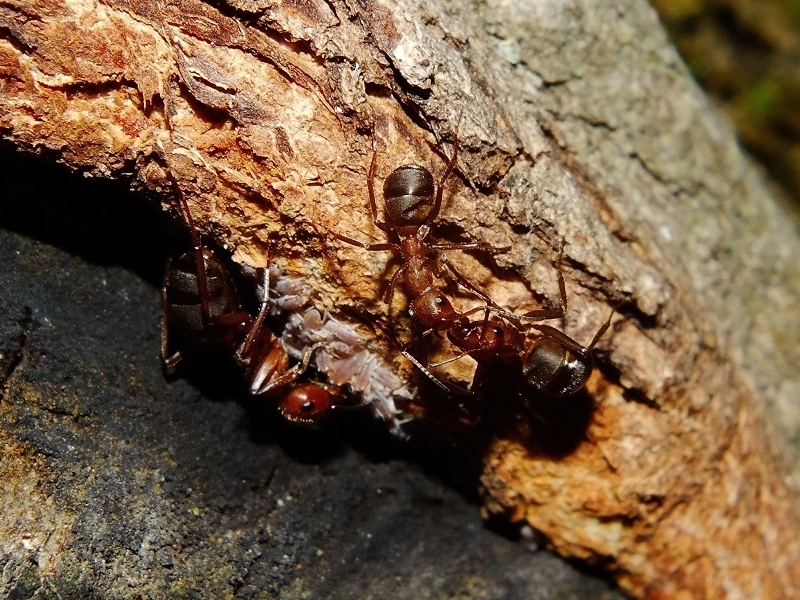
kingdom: Animalia
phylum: Arthropoda
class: Insecta
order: Hymenoptera
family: Formicidae
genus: Formica
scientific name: Formica truncorum
